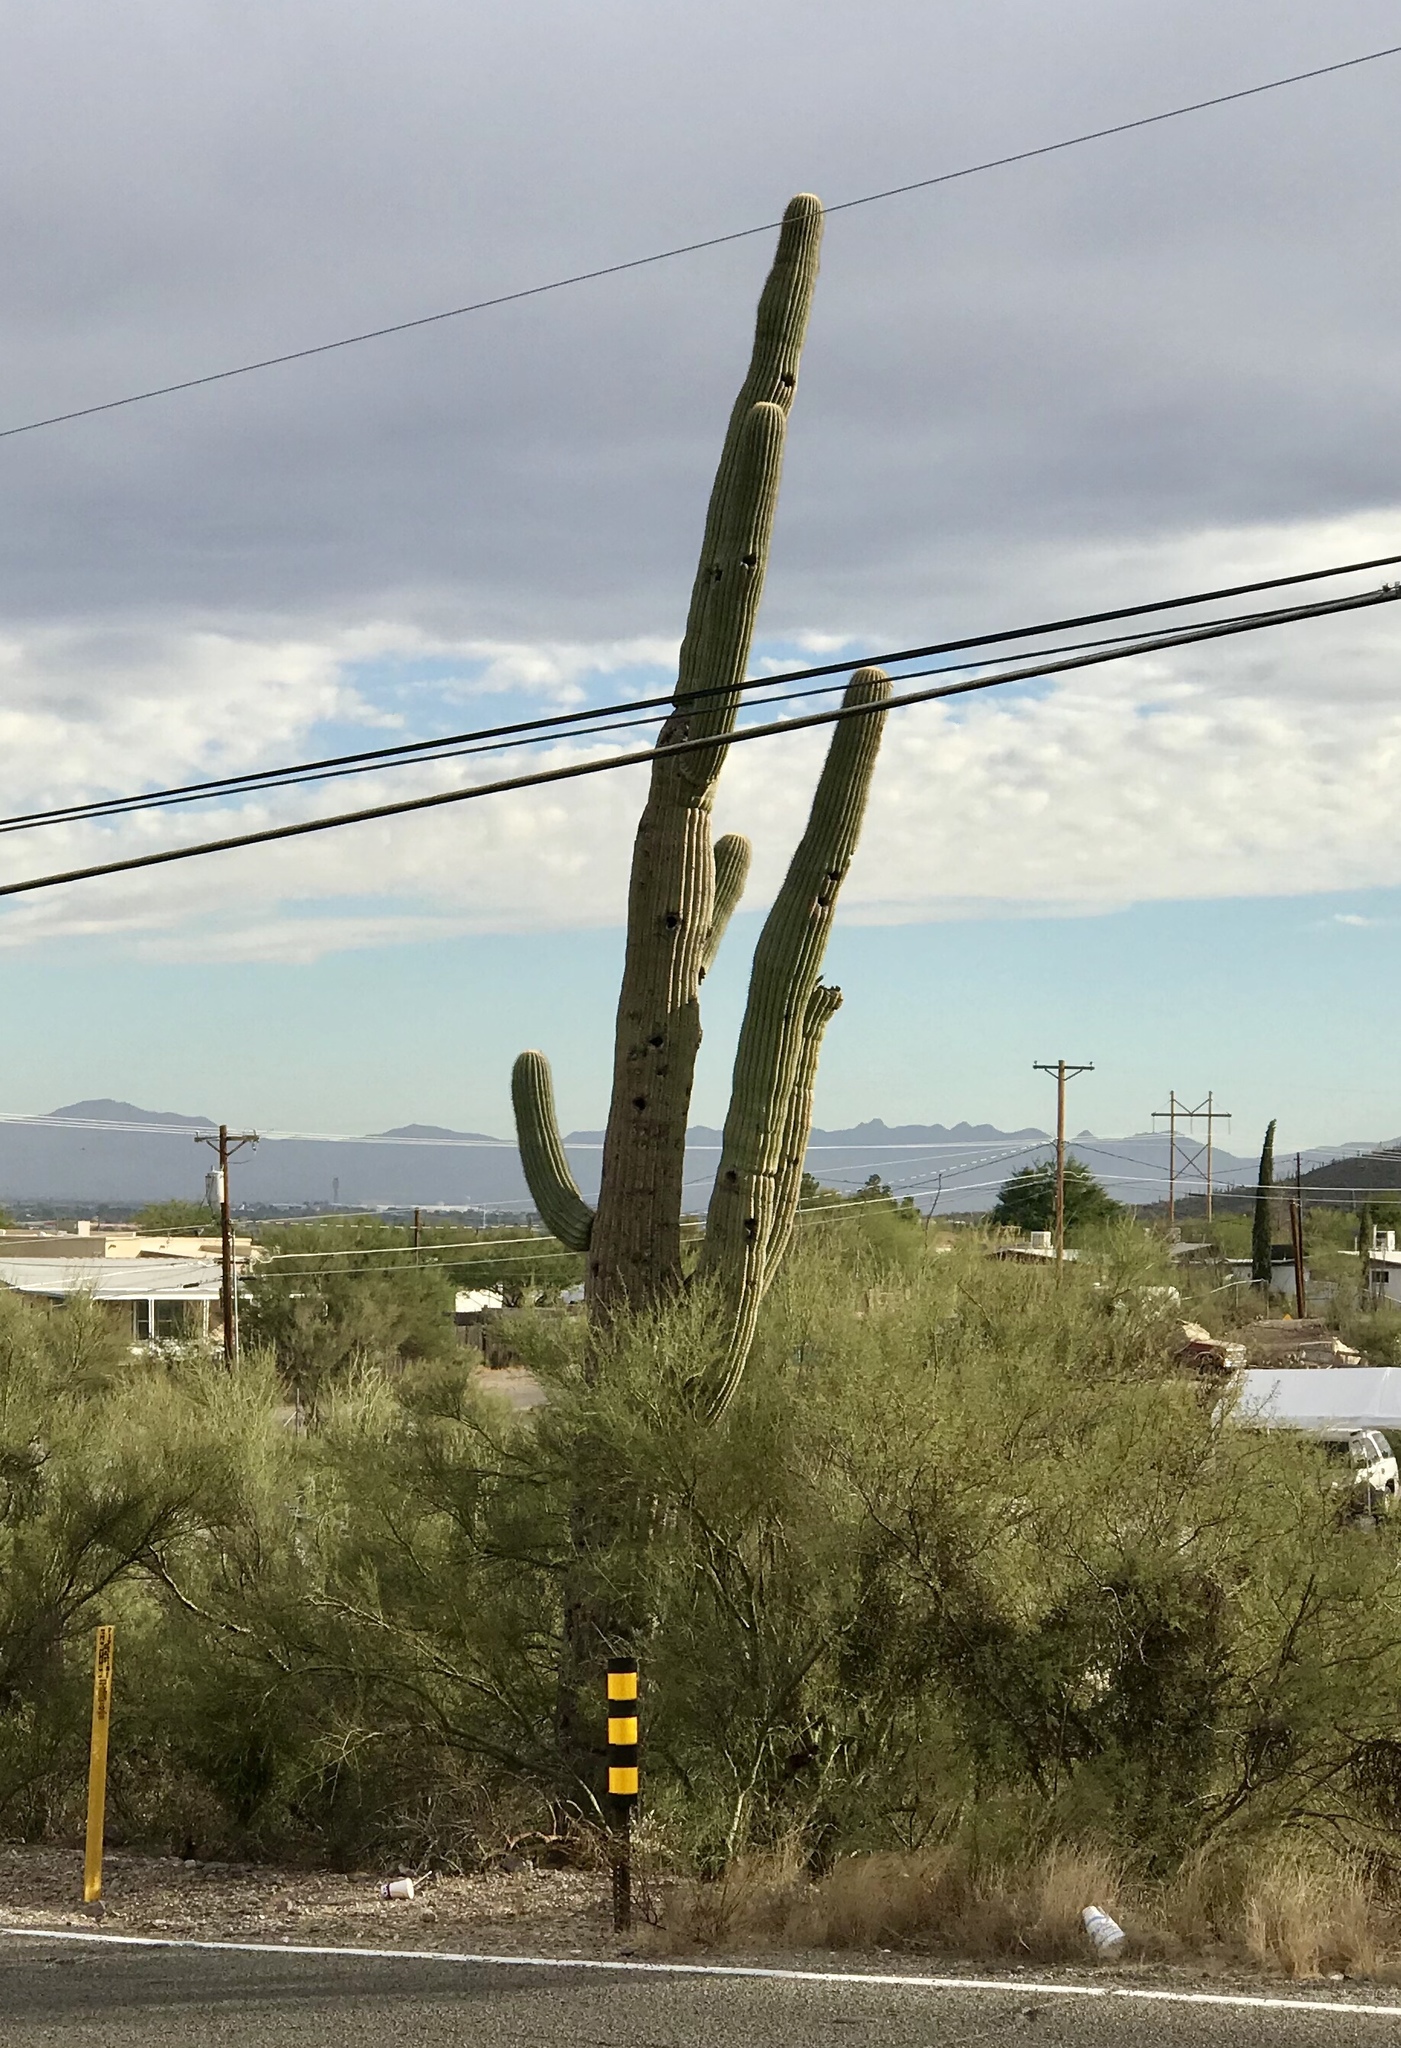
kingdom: Plantae
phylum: Tracheophyta
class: Magnoliopsida
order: Caryophyllales
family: Cactaceae
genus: Carnegiea
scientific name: Carnegiea gigantea
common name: Saguaro
